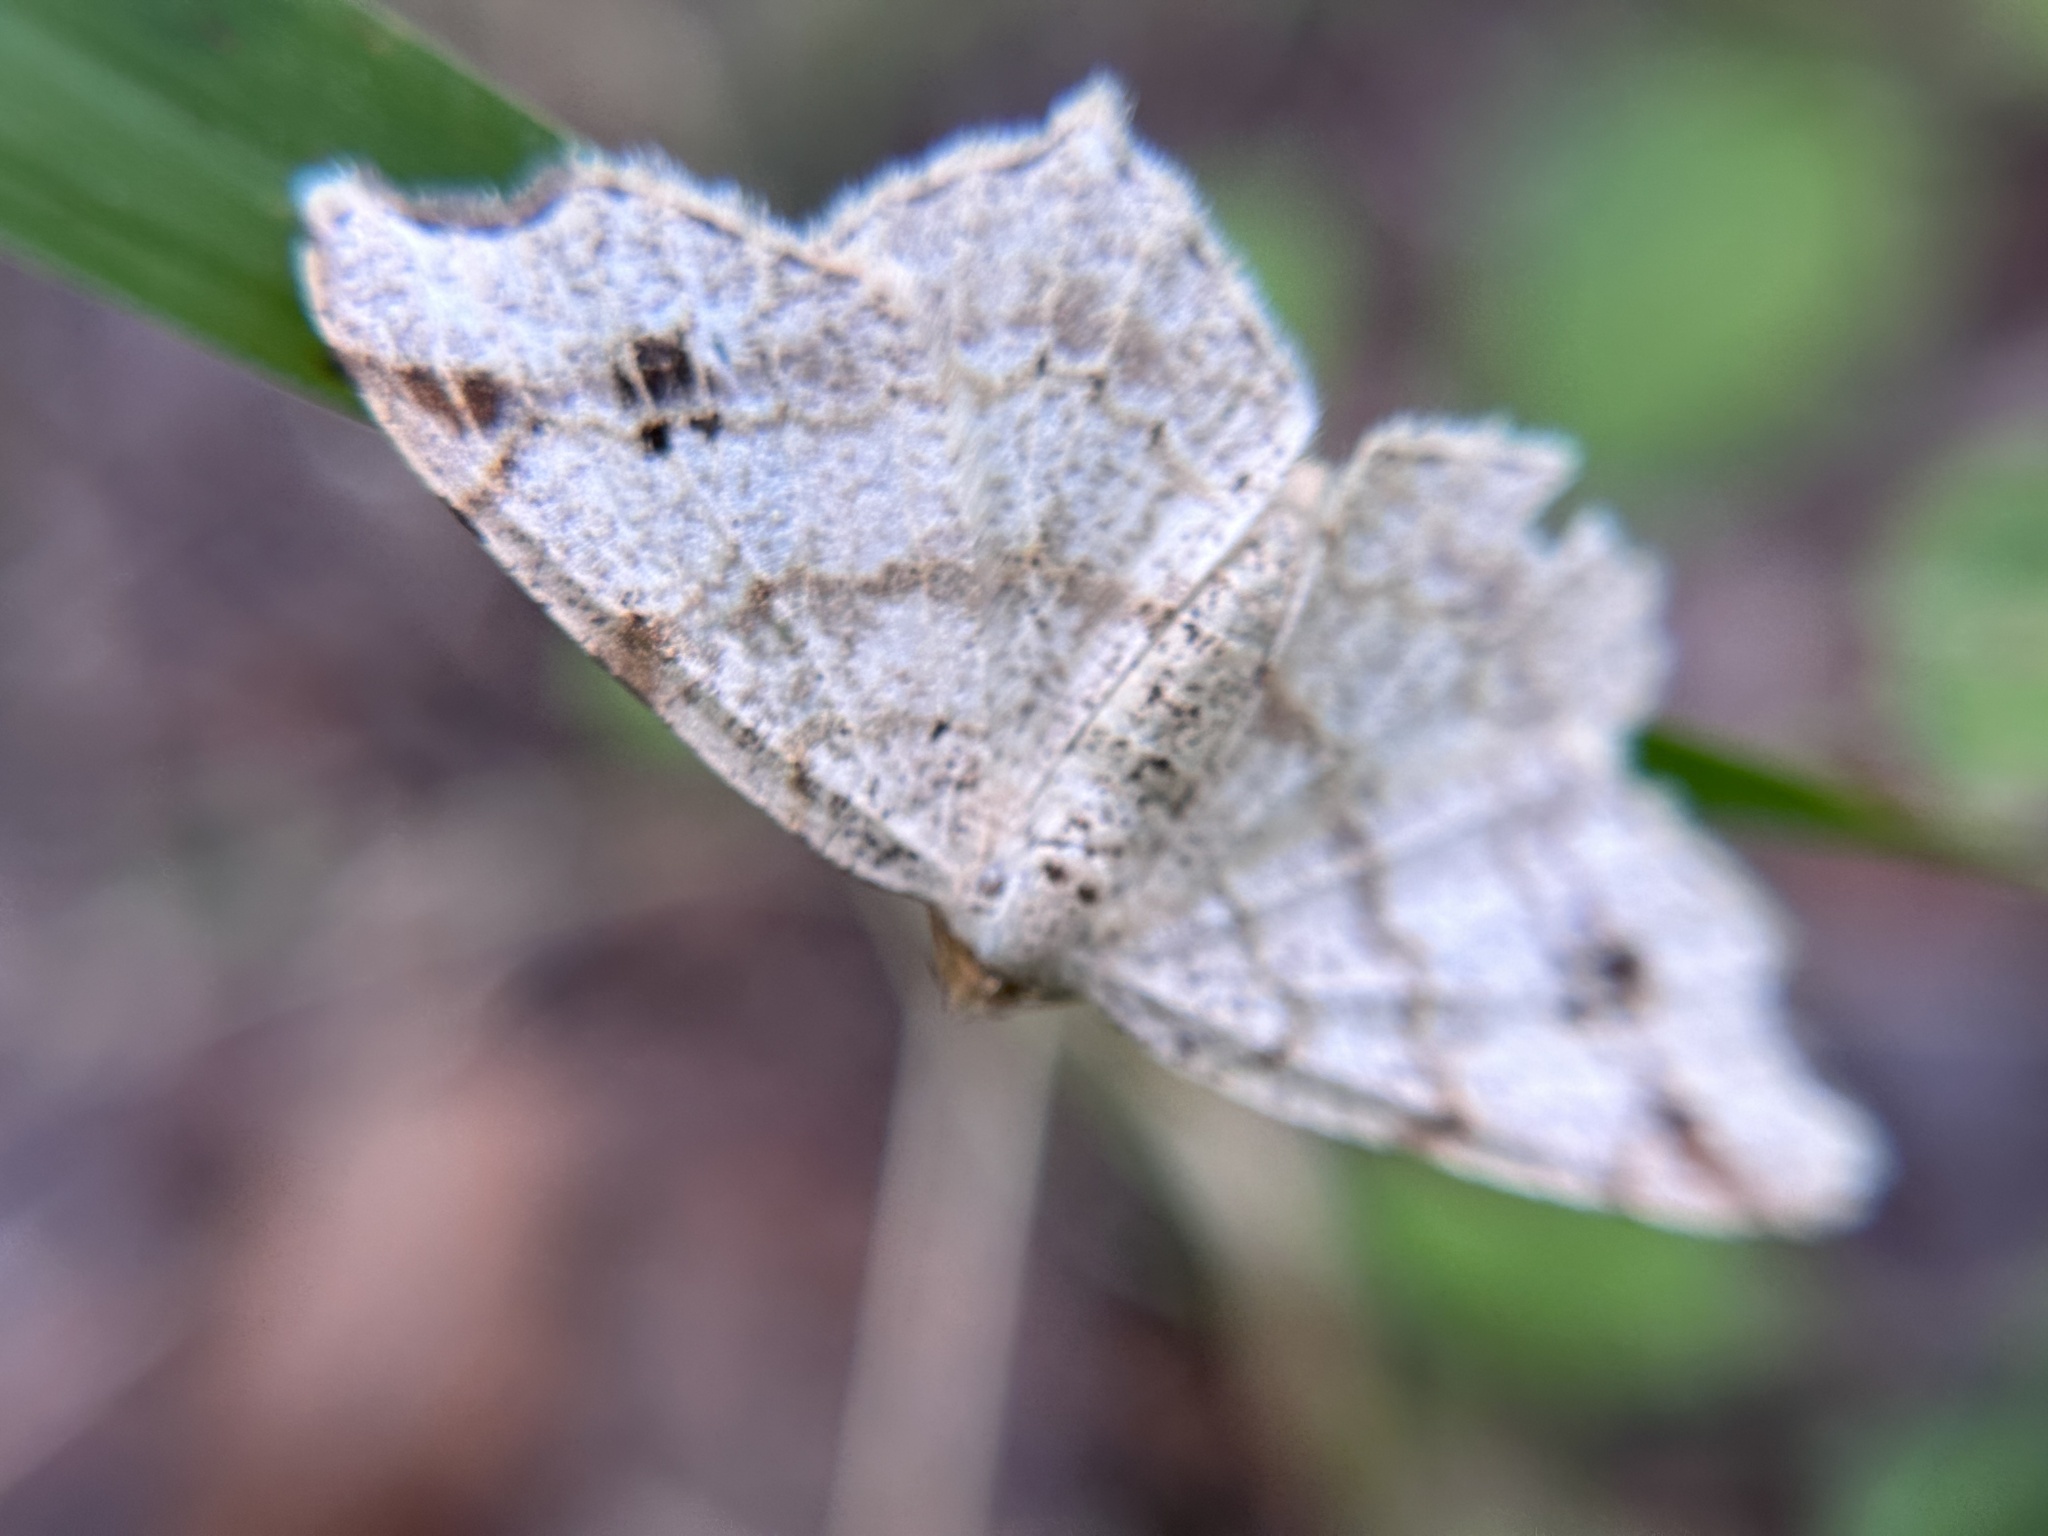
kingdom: Animalia
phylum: Arthropoda
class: Insecta
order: Lepidoptera
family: Geometridae
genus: Macaria
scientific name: Macaria aemulataria
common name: Common angle
